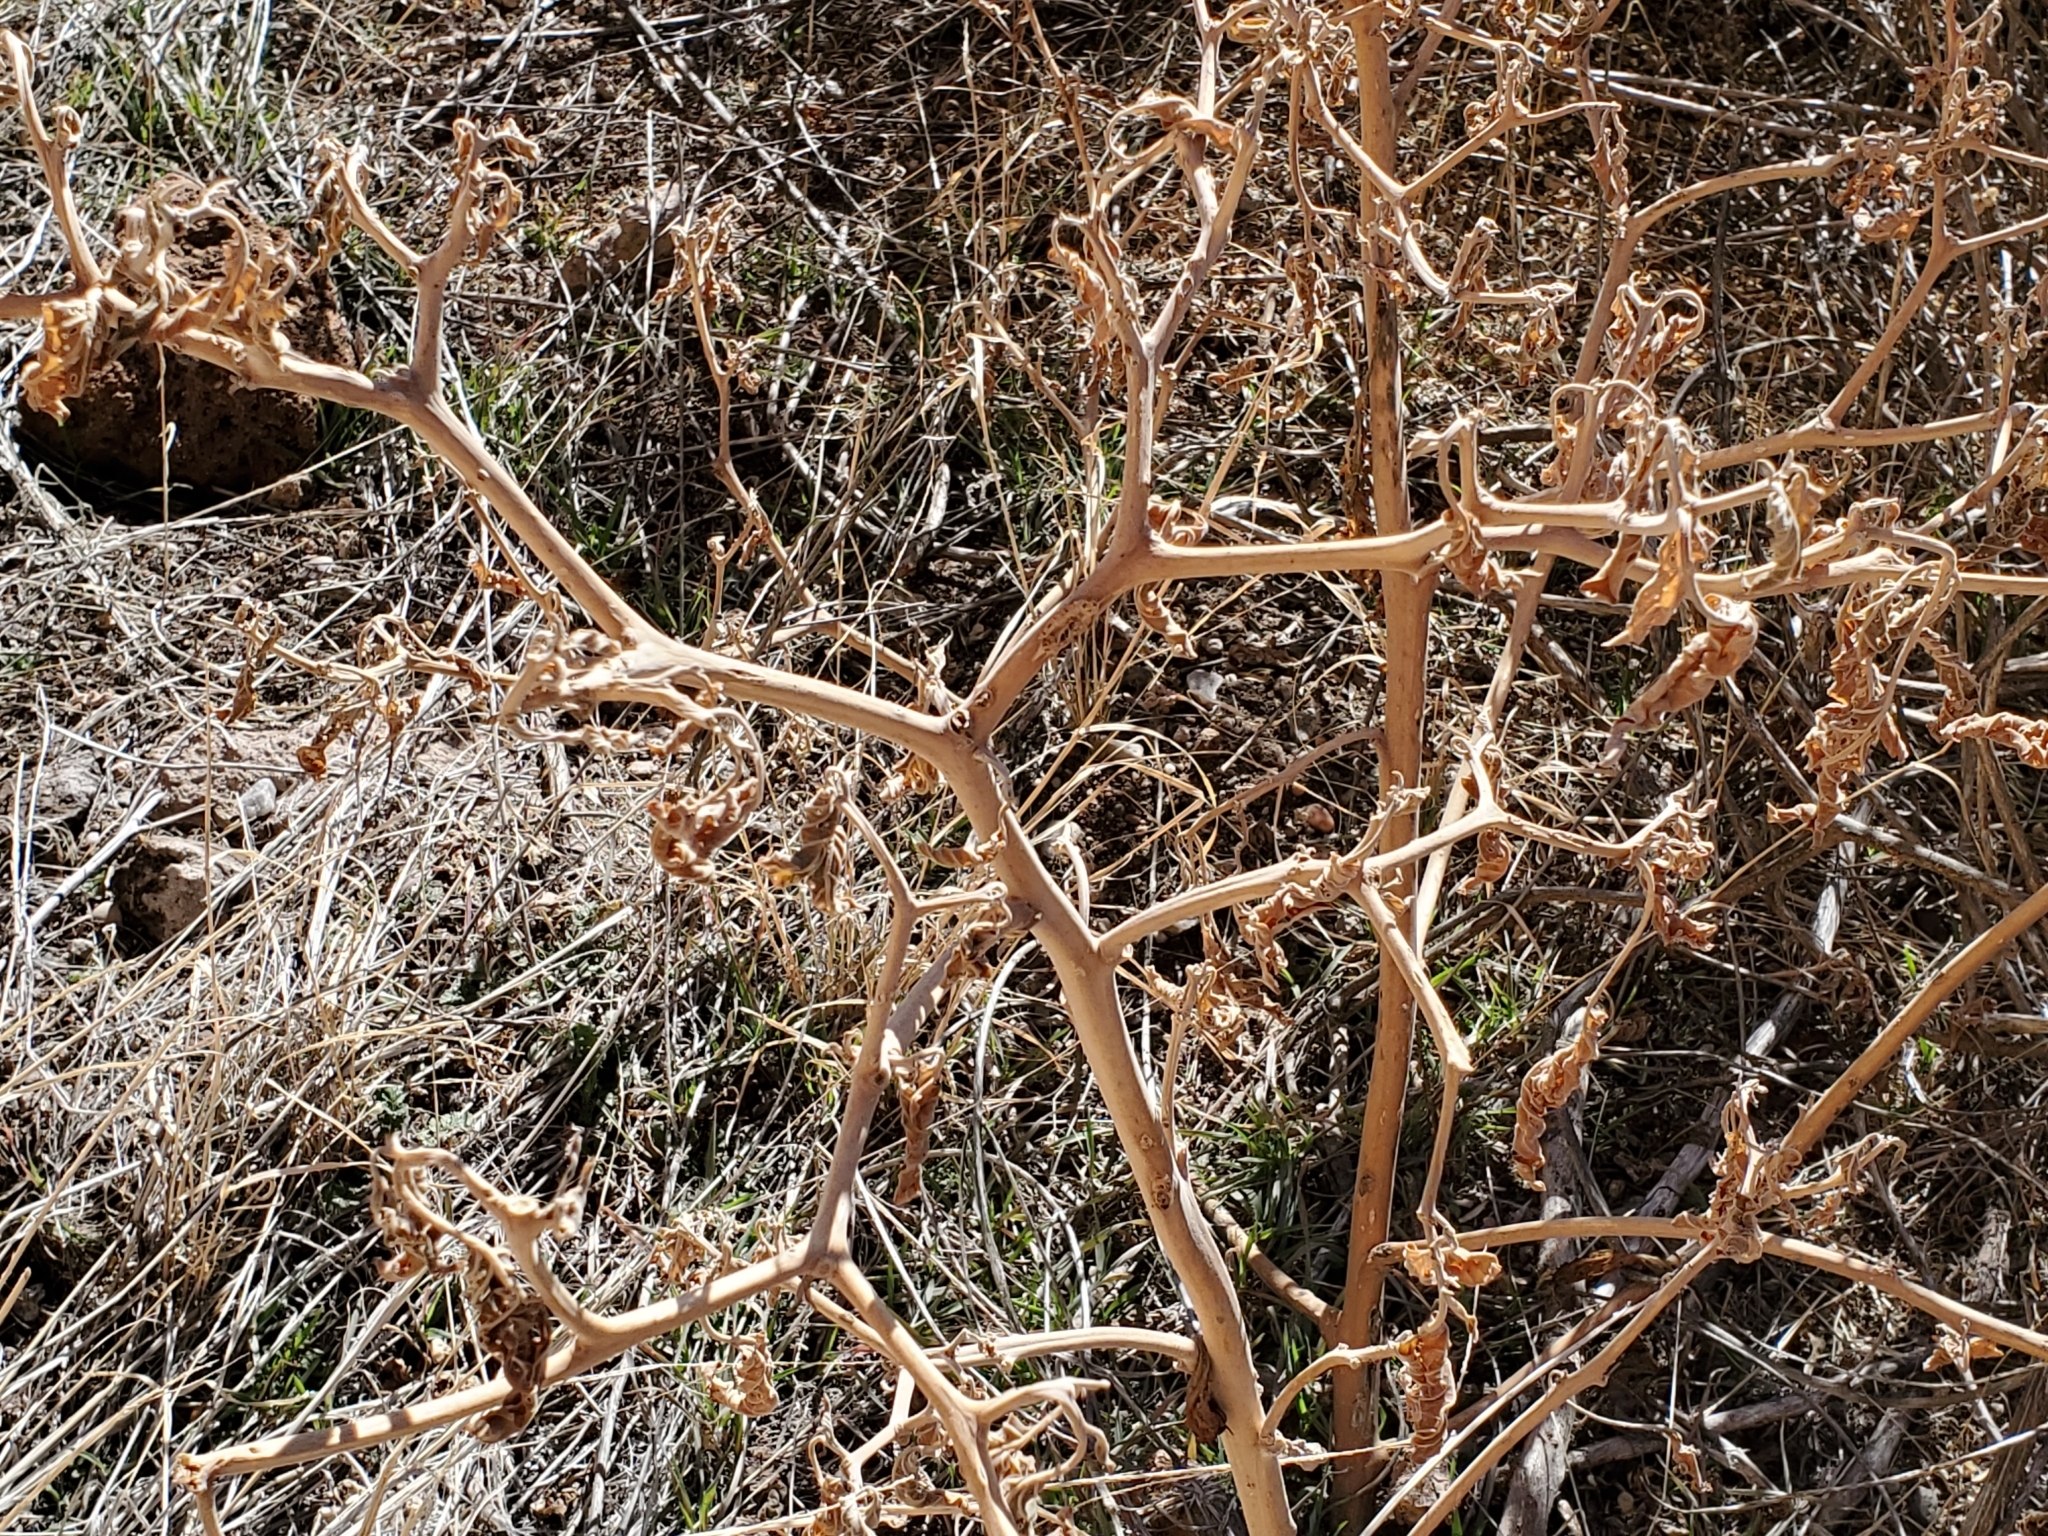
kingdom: Plantae
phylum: Tracheophyta
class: Magnoliopsida
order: Solanales
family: Solanaceae
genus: Datura
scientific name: Datura wrightii
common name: Sacred thorn-apple
